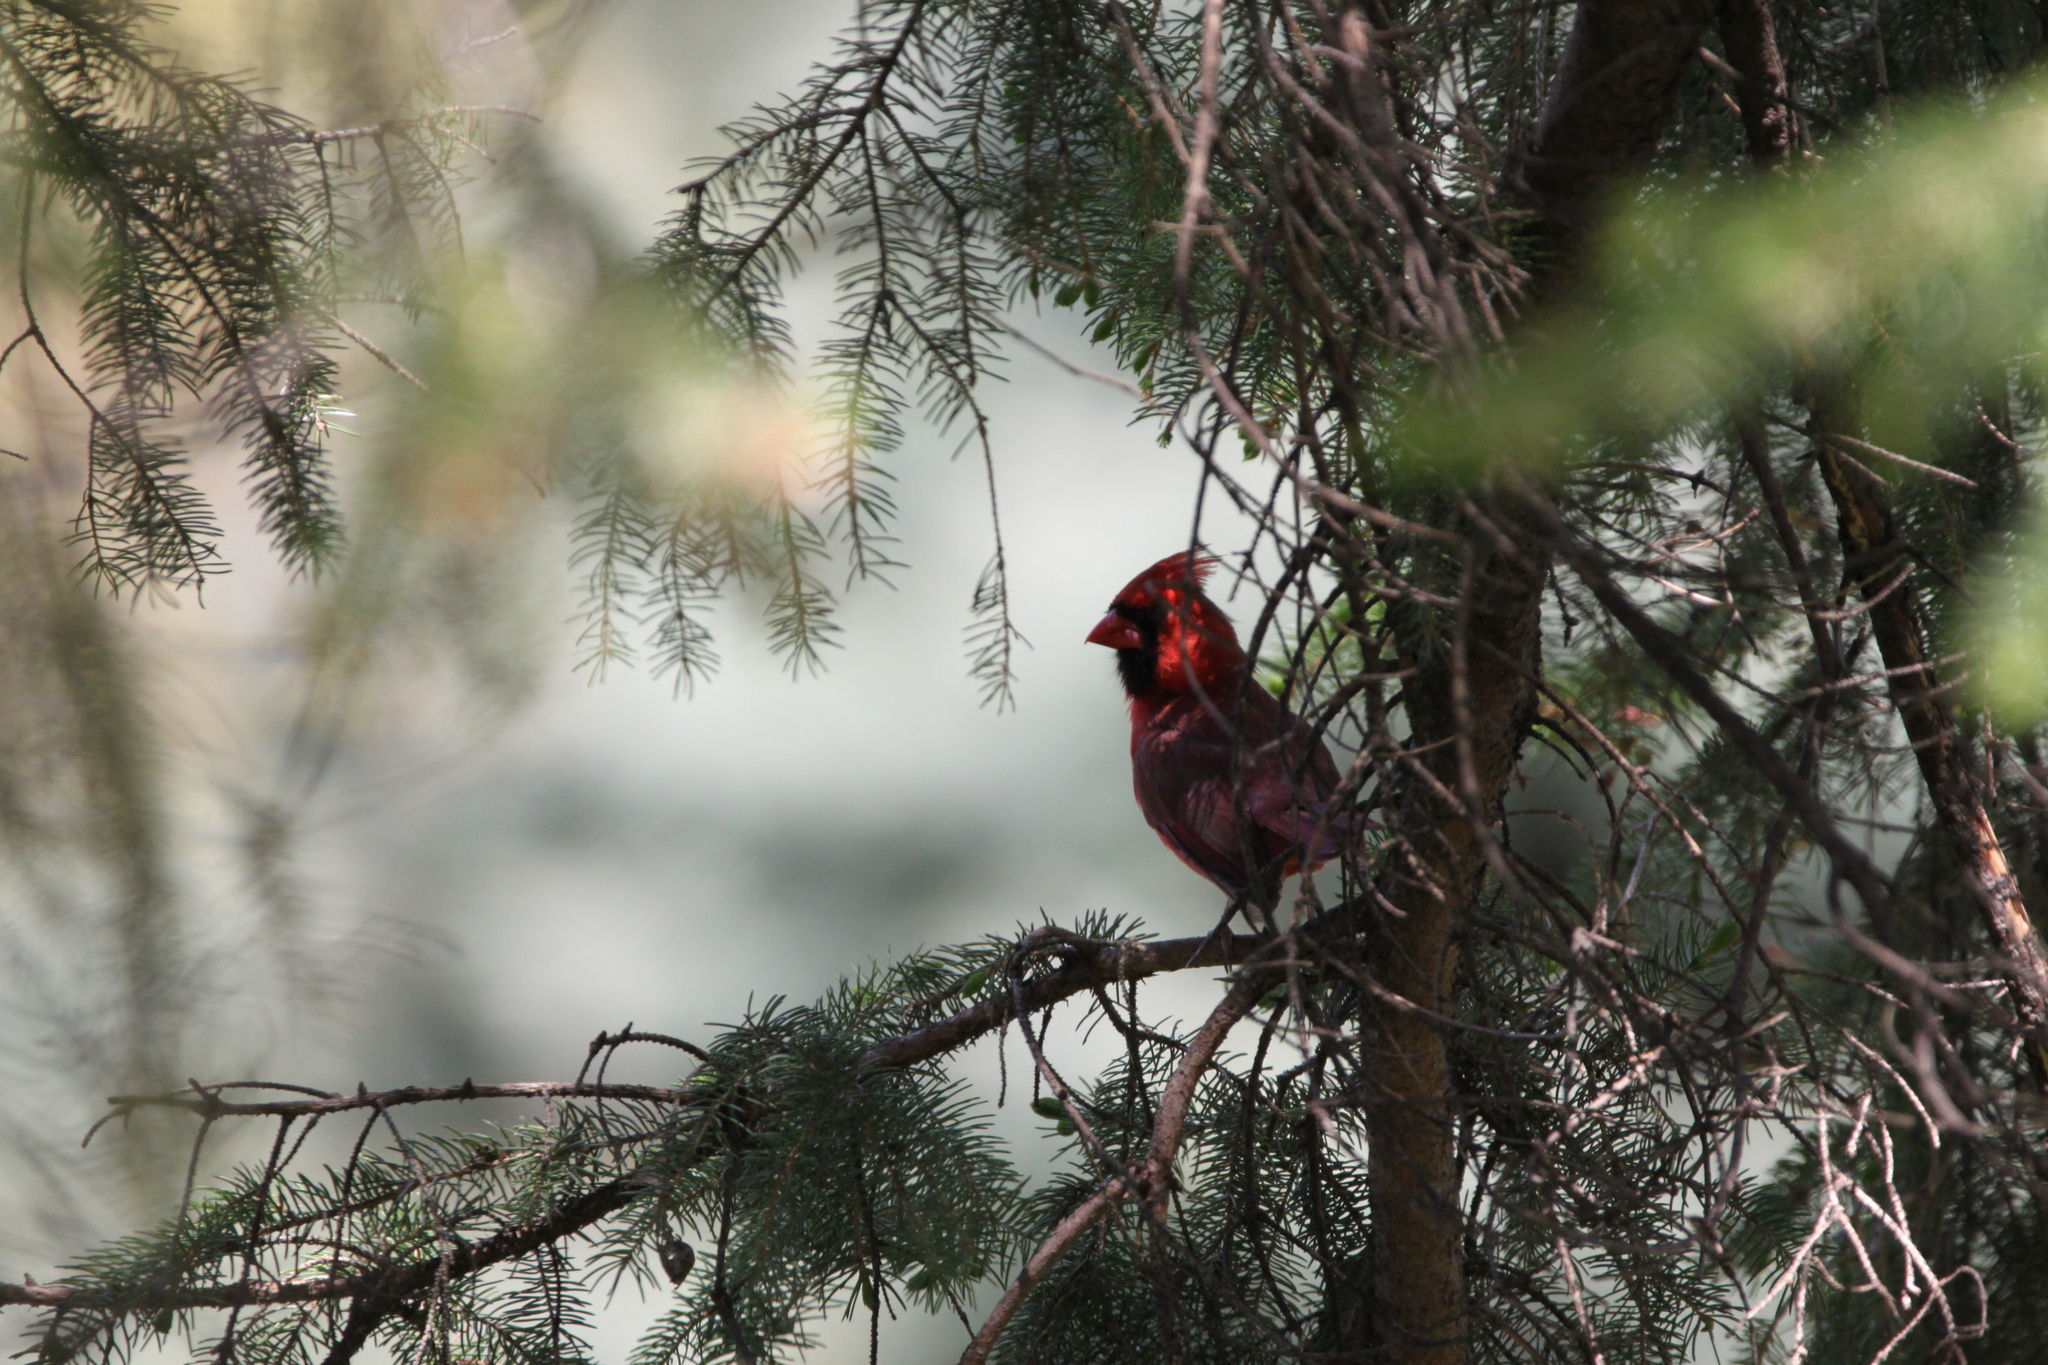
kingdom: Animalia
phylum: Chordata
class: Aves
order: Passeriformes
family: Cardinalidae
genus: Cardinalis
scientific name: Cardinalis cardinalis
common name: Northern cardinal
